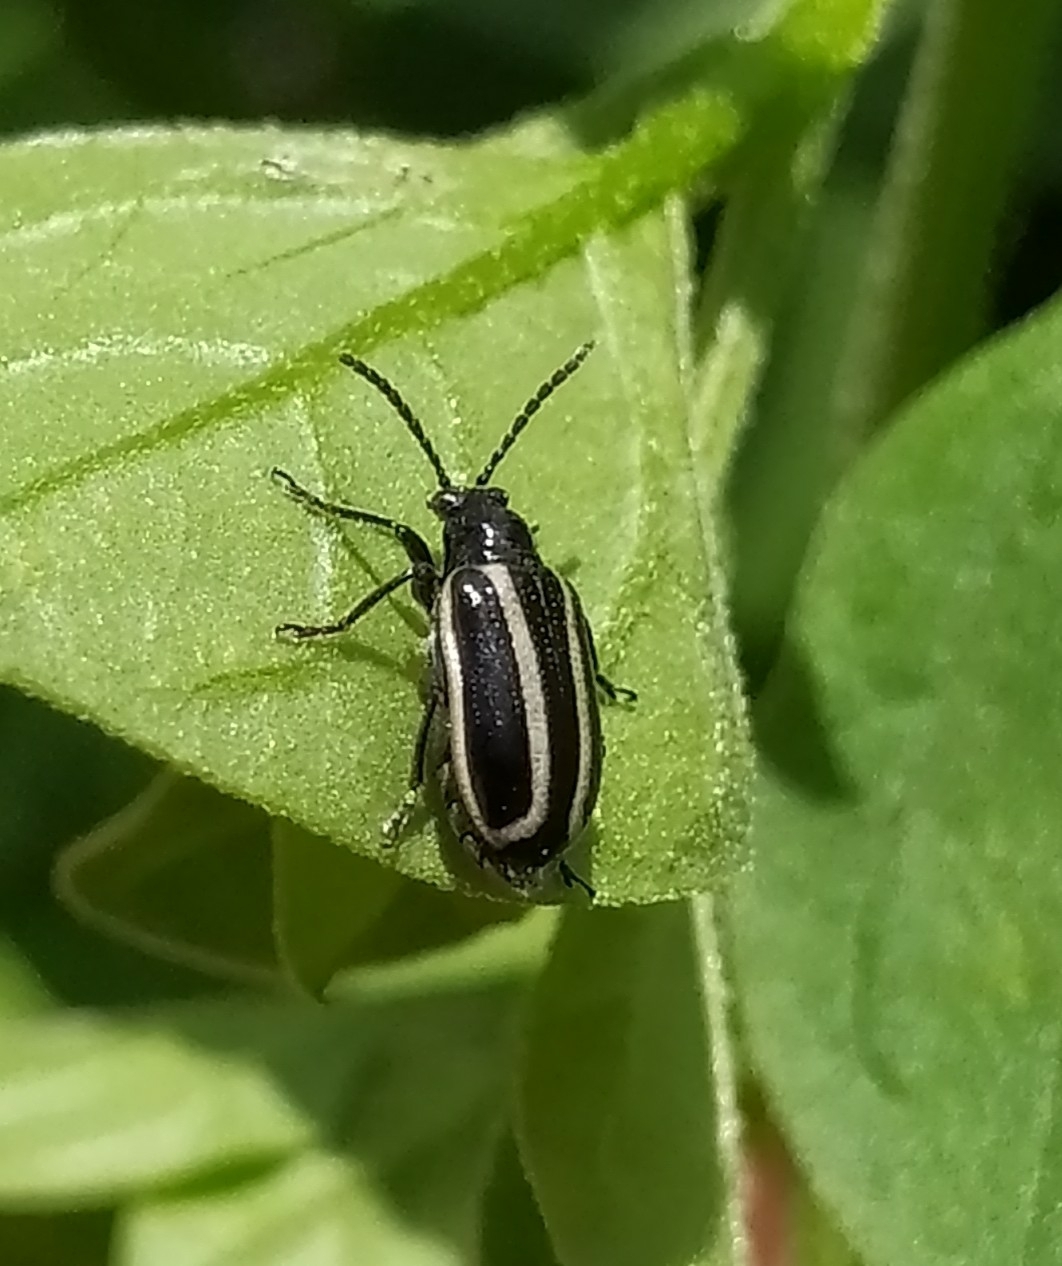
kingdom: Animalia
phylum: Arthropoda
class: Insecta
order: Coleoptera
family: Chrysomelidae
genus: Lema
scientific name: Lema bilineata
